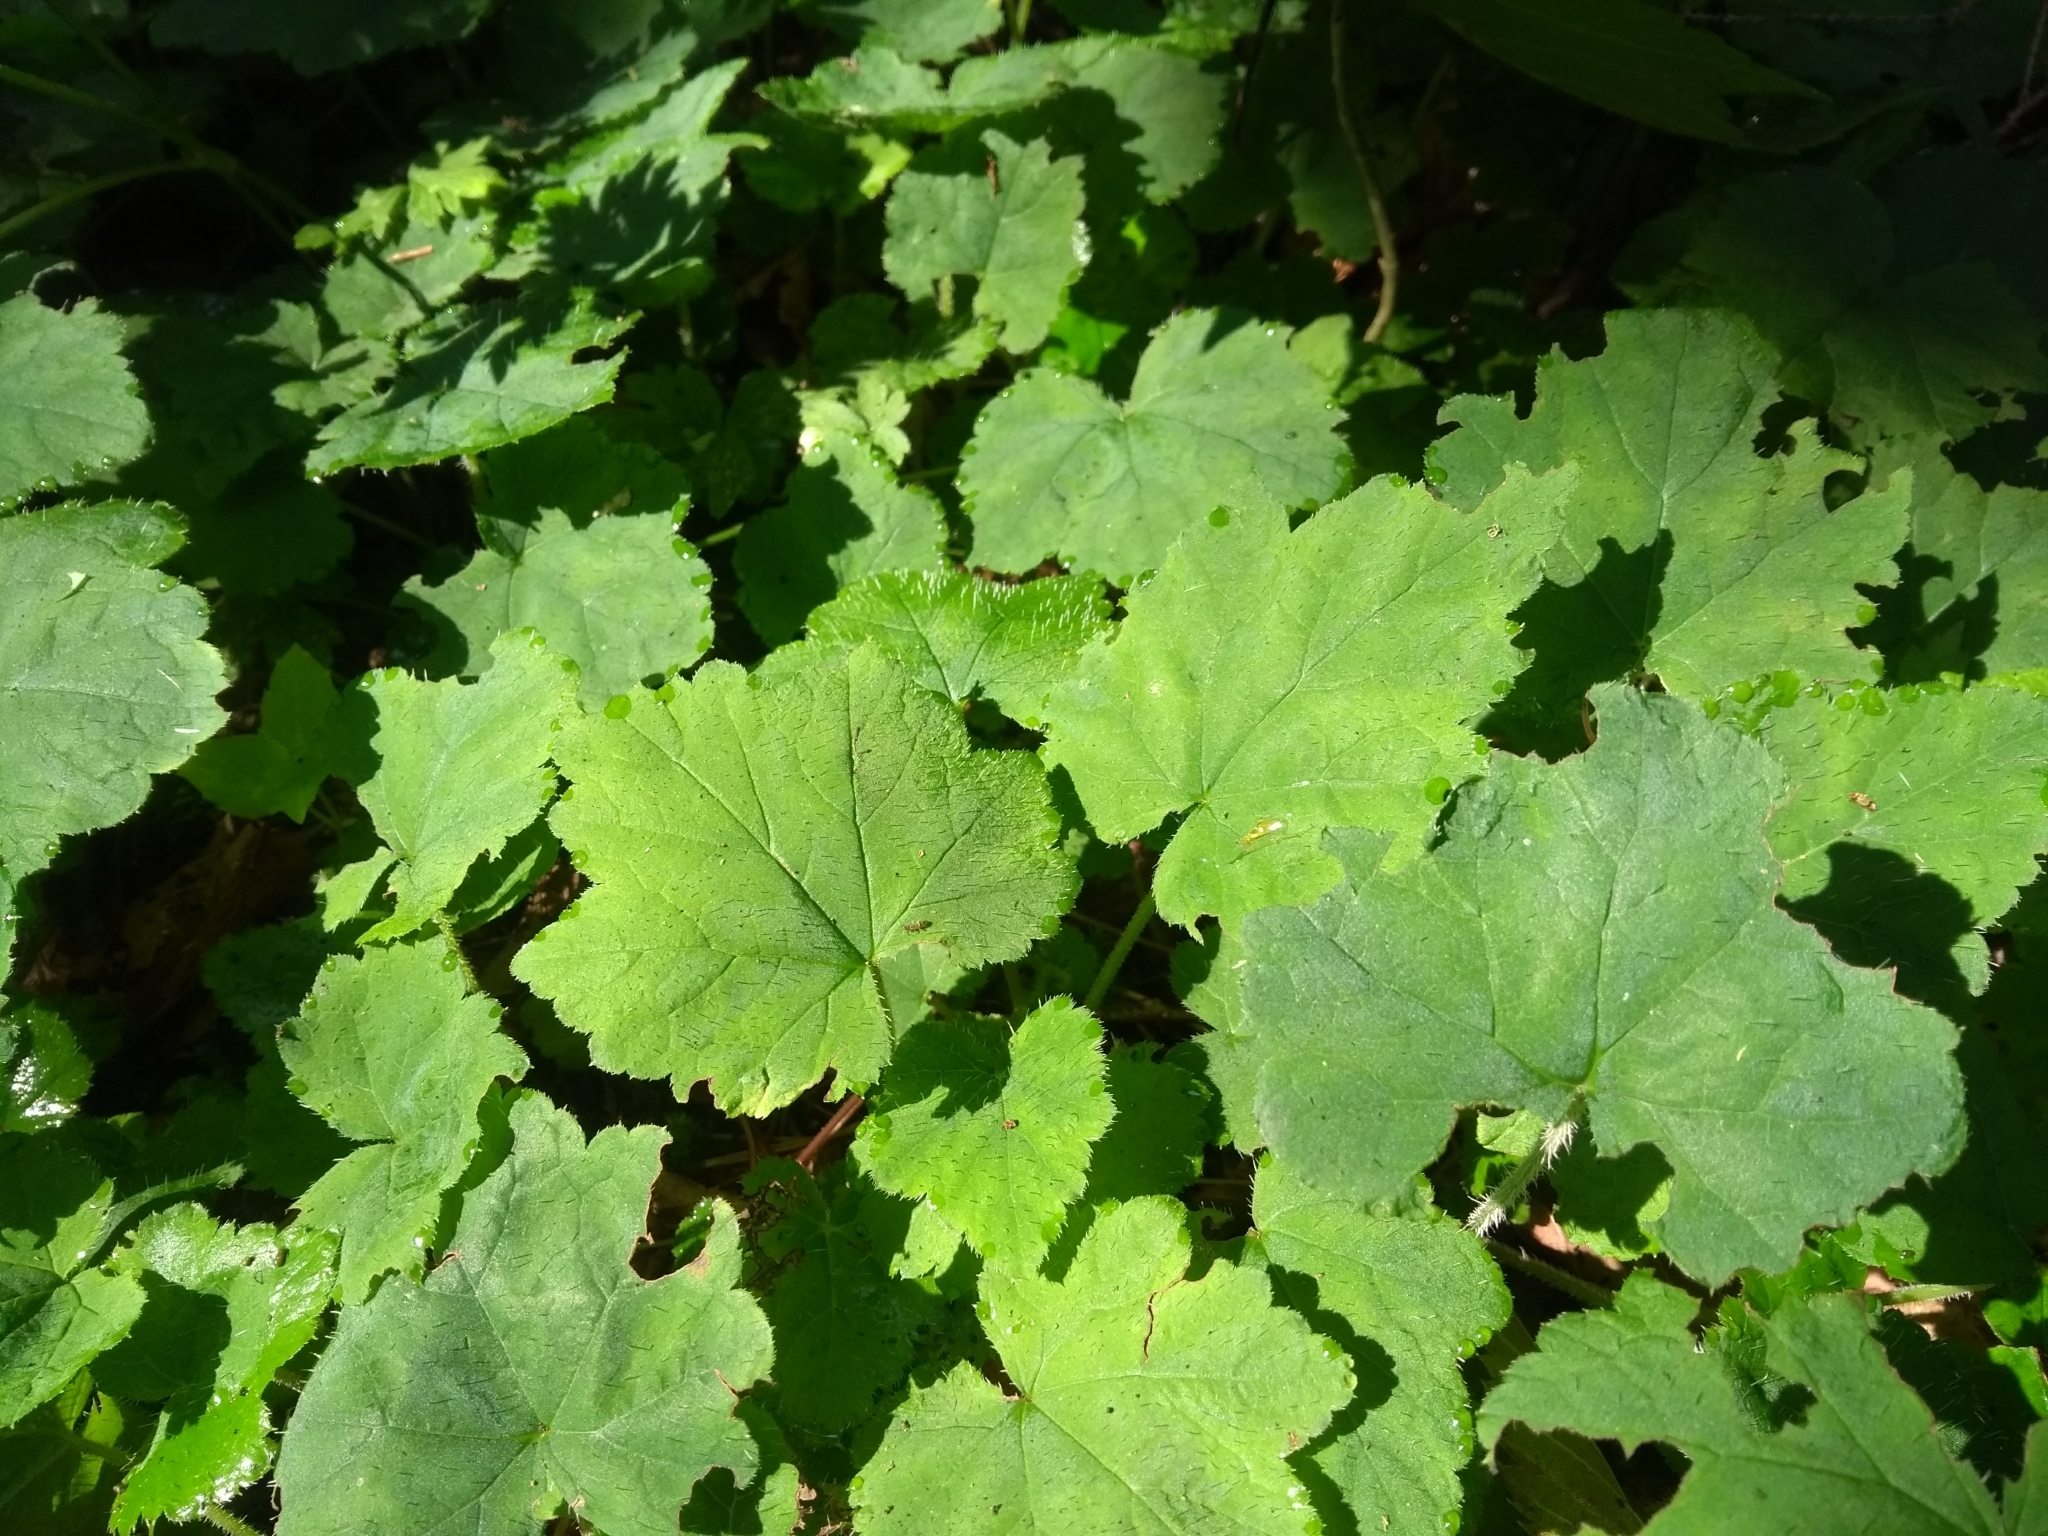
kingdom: Plantae
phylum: Tracheophyta
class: Magnoliopsida
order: Saxifragales
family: Saxifragaceae
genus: Tiarella
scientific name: Tiarella stolonifera
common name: Stoloniferous foamflower
